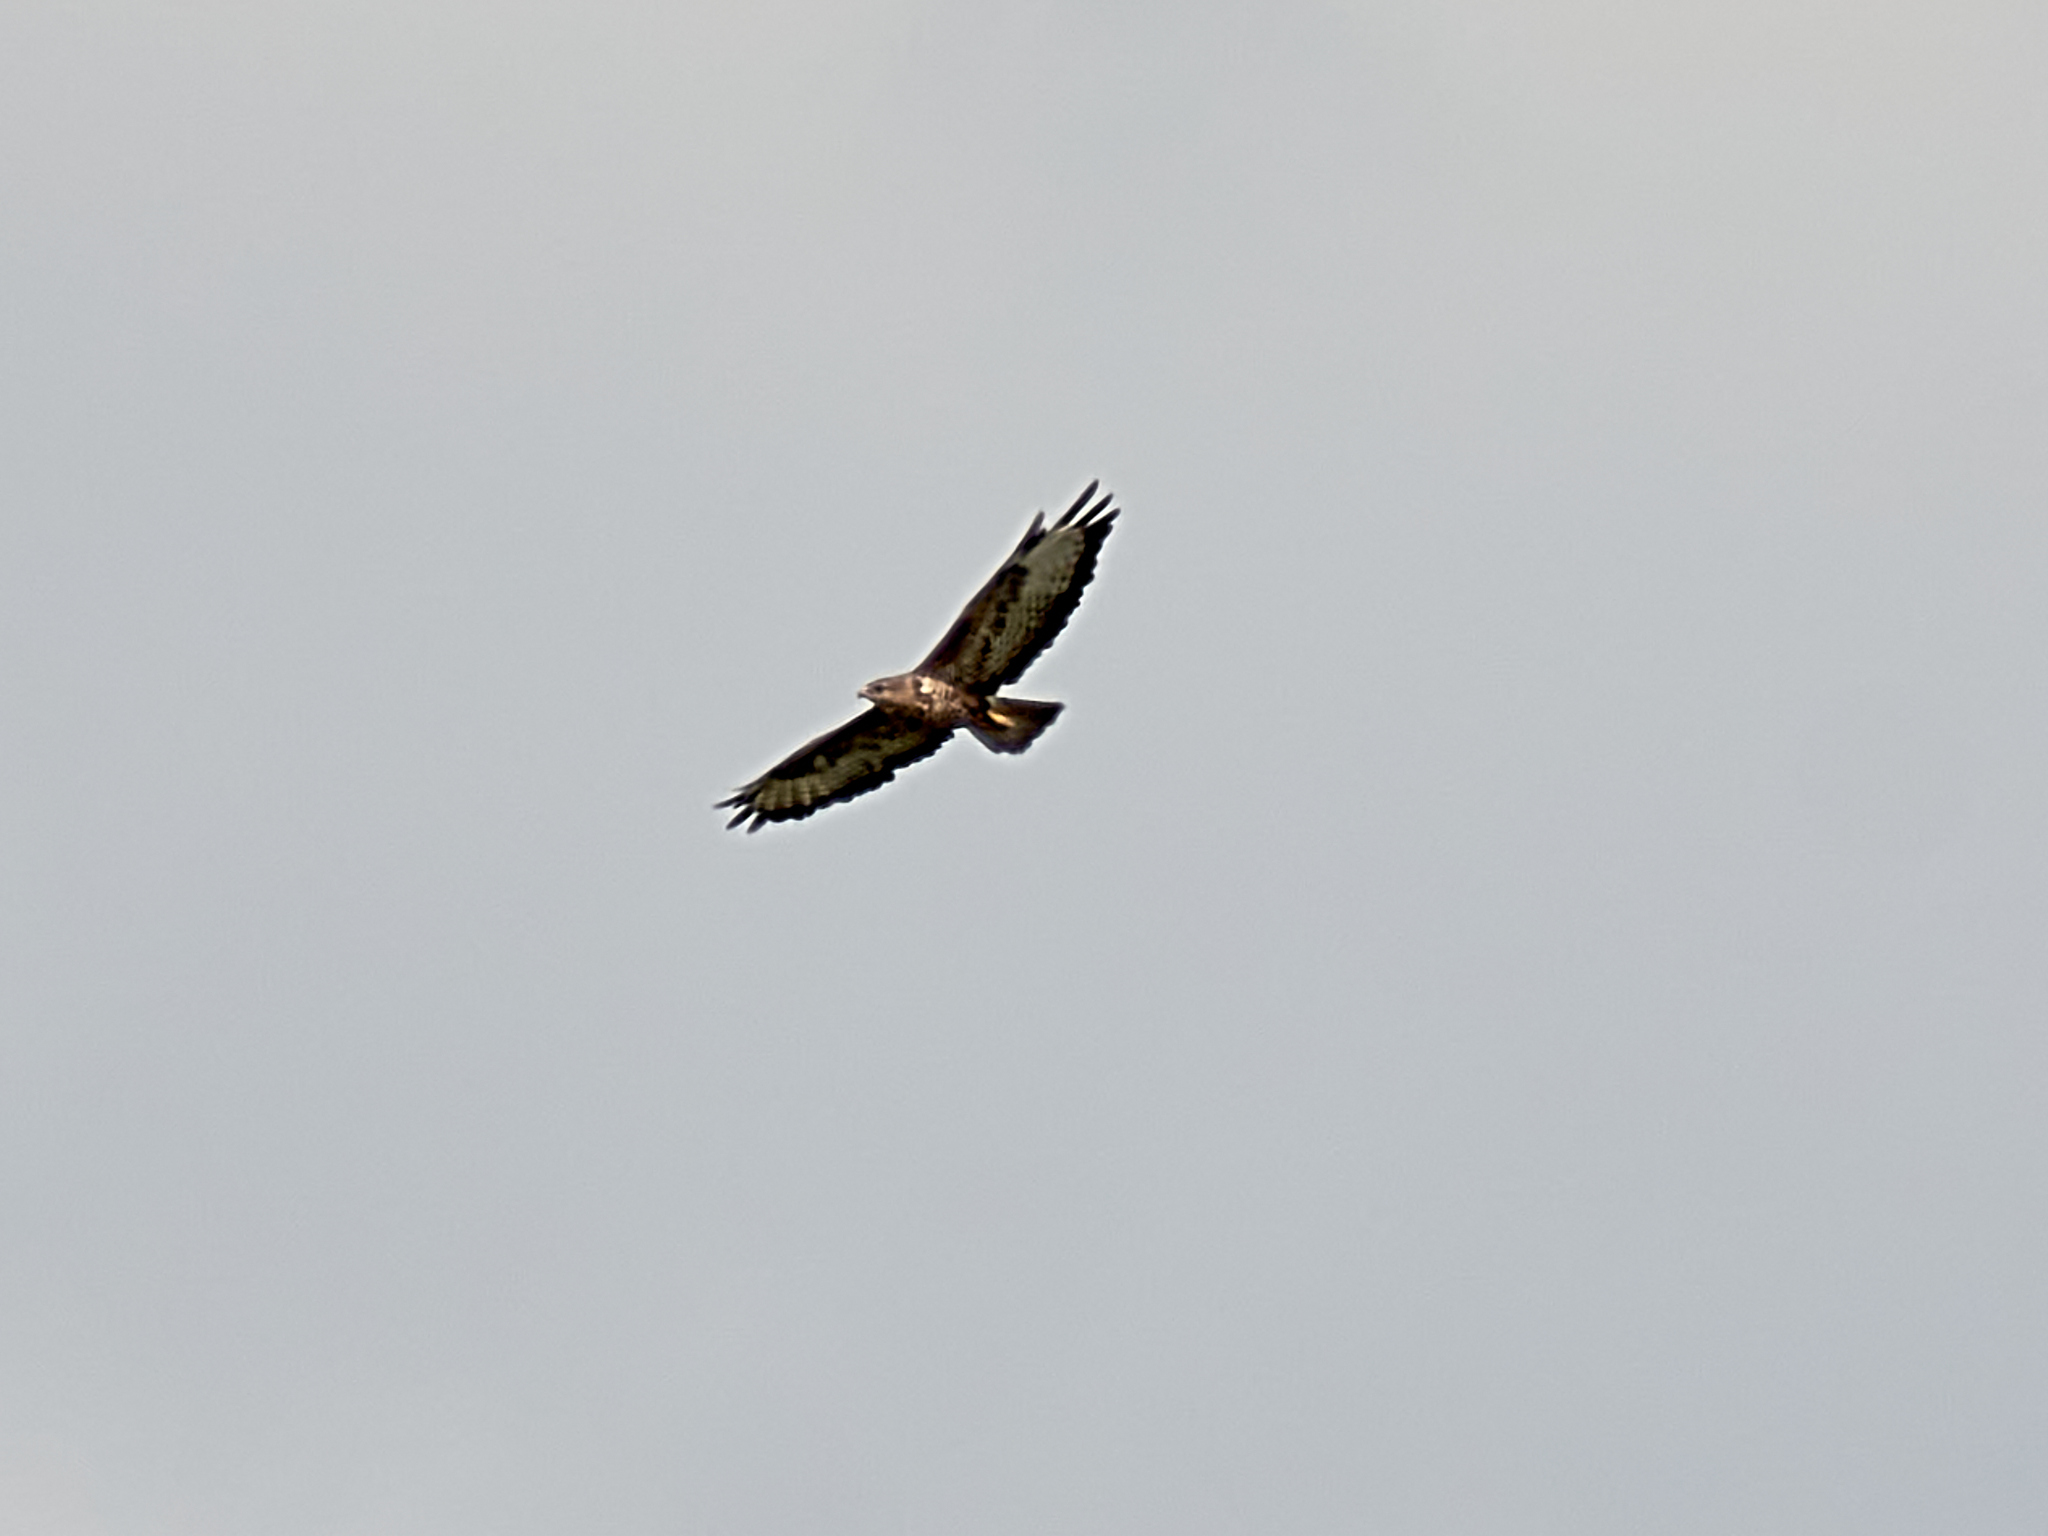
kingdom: Animalia
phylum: Chordata
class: Aves
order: Accipitriformes
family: Accipitridae
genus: Buteo
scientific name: Buteo buteo
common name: Common buzzard
